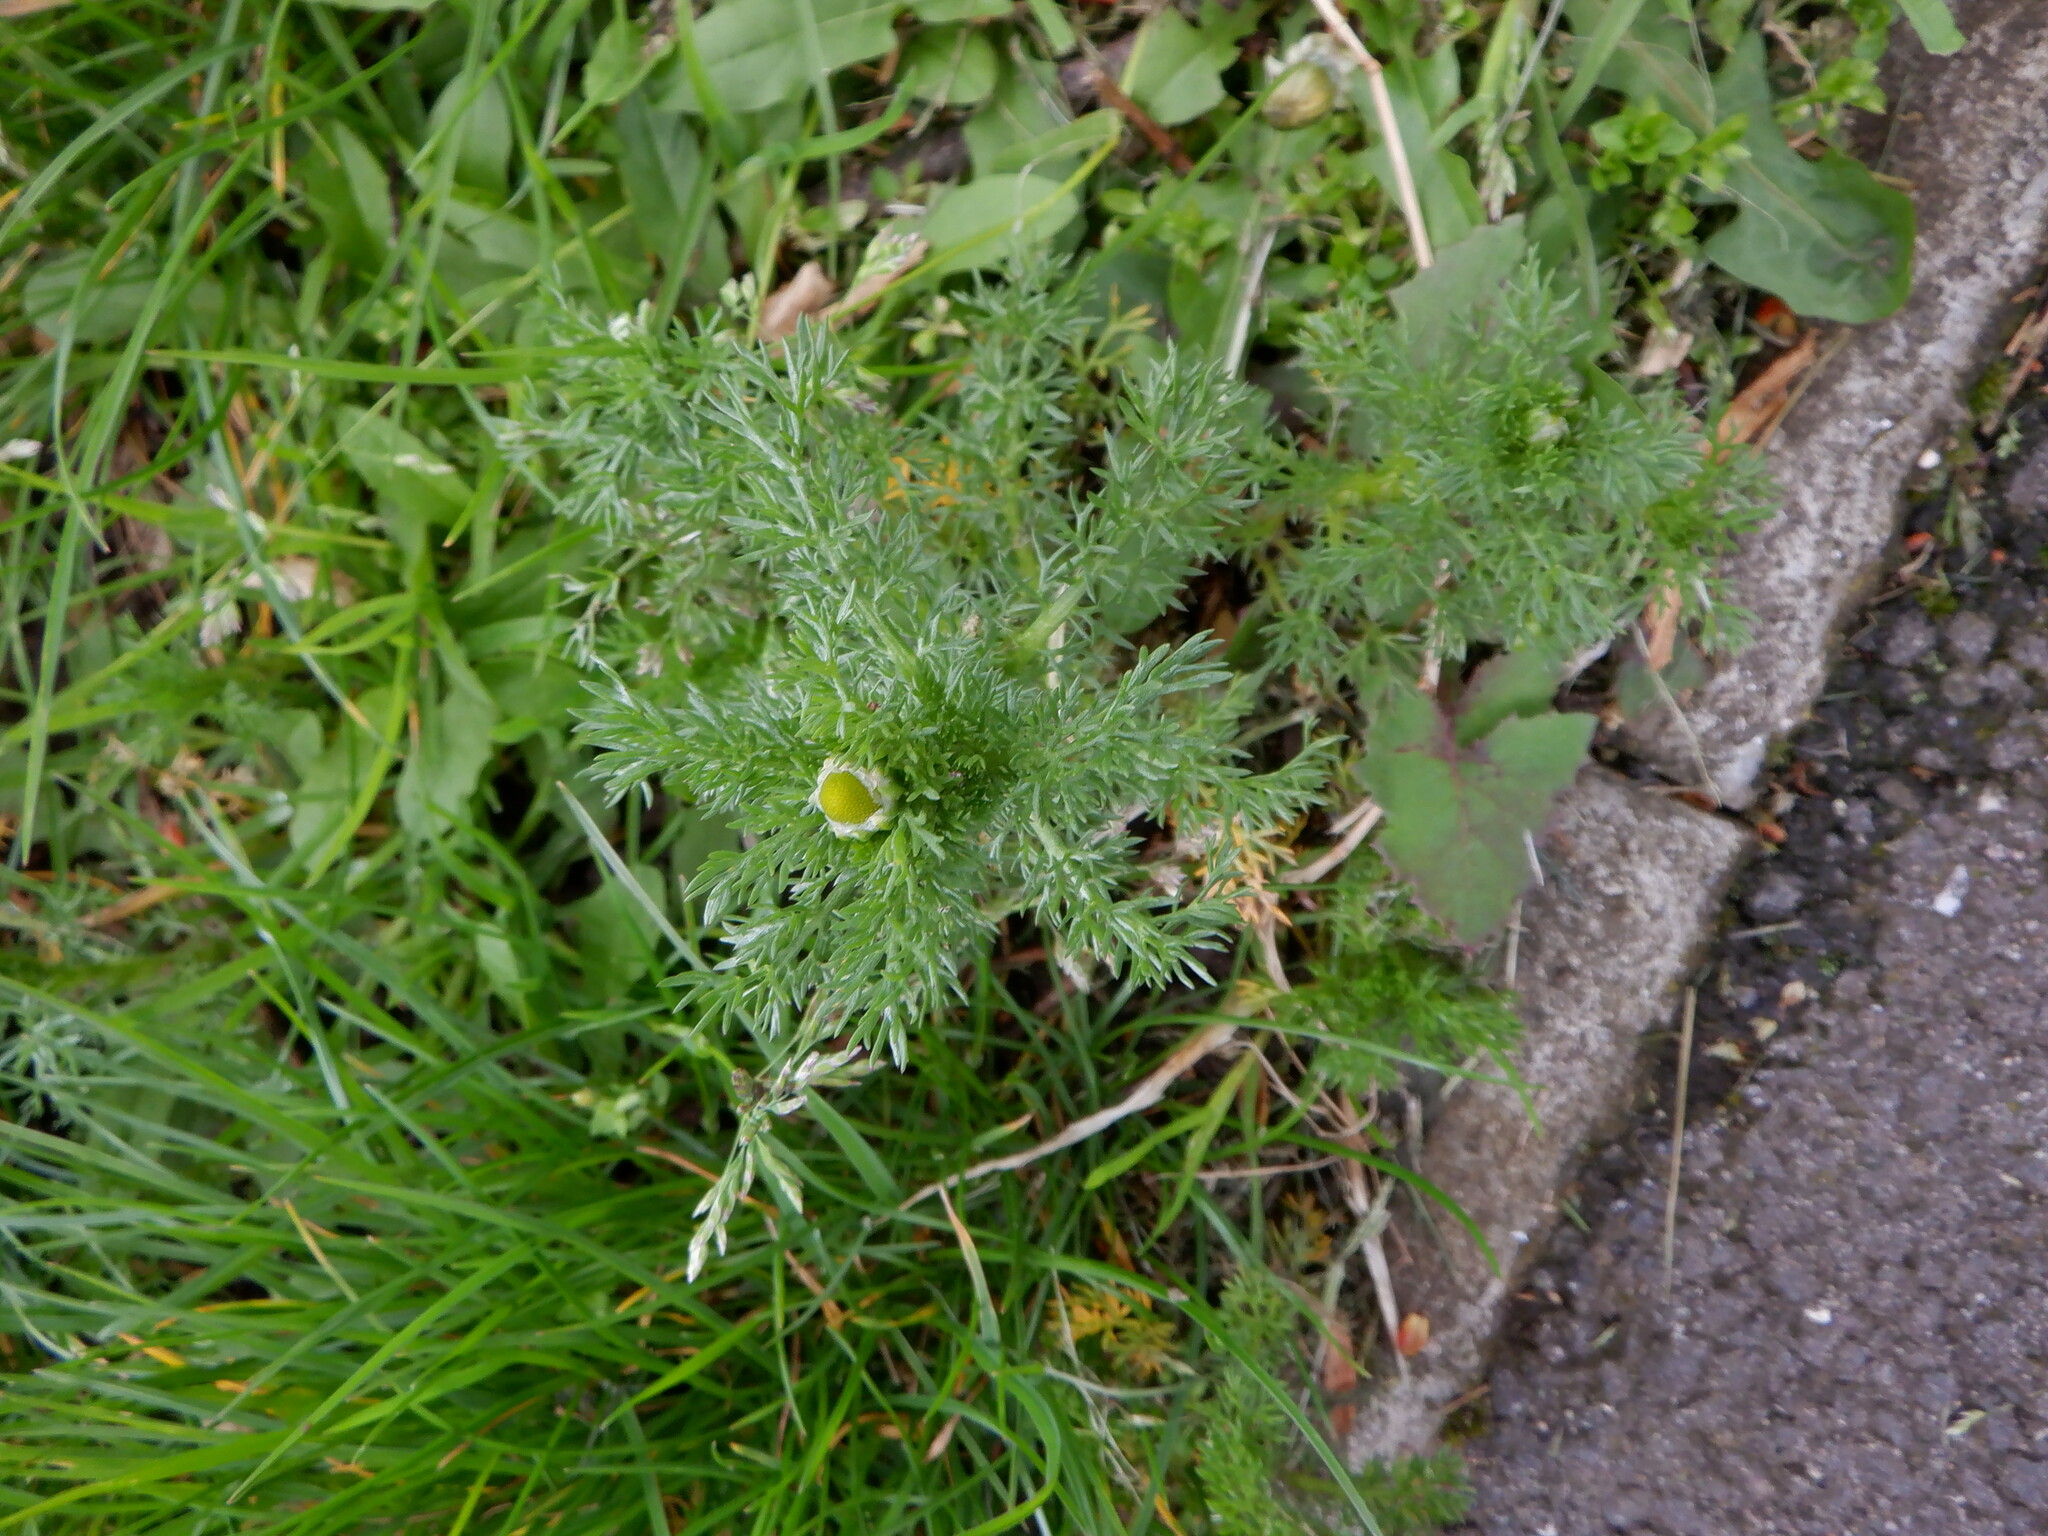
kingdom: Plantae
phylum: Tracheophyta
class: Magnoliopsida
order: Asterales
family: Asteraceae
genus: Matricaria
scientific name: Matricaria discoidea
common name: Disc mayweed
